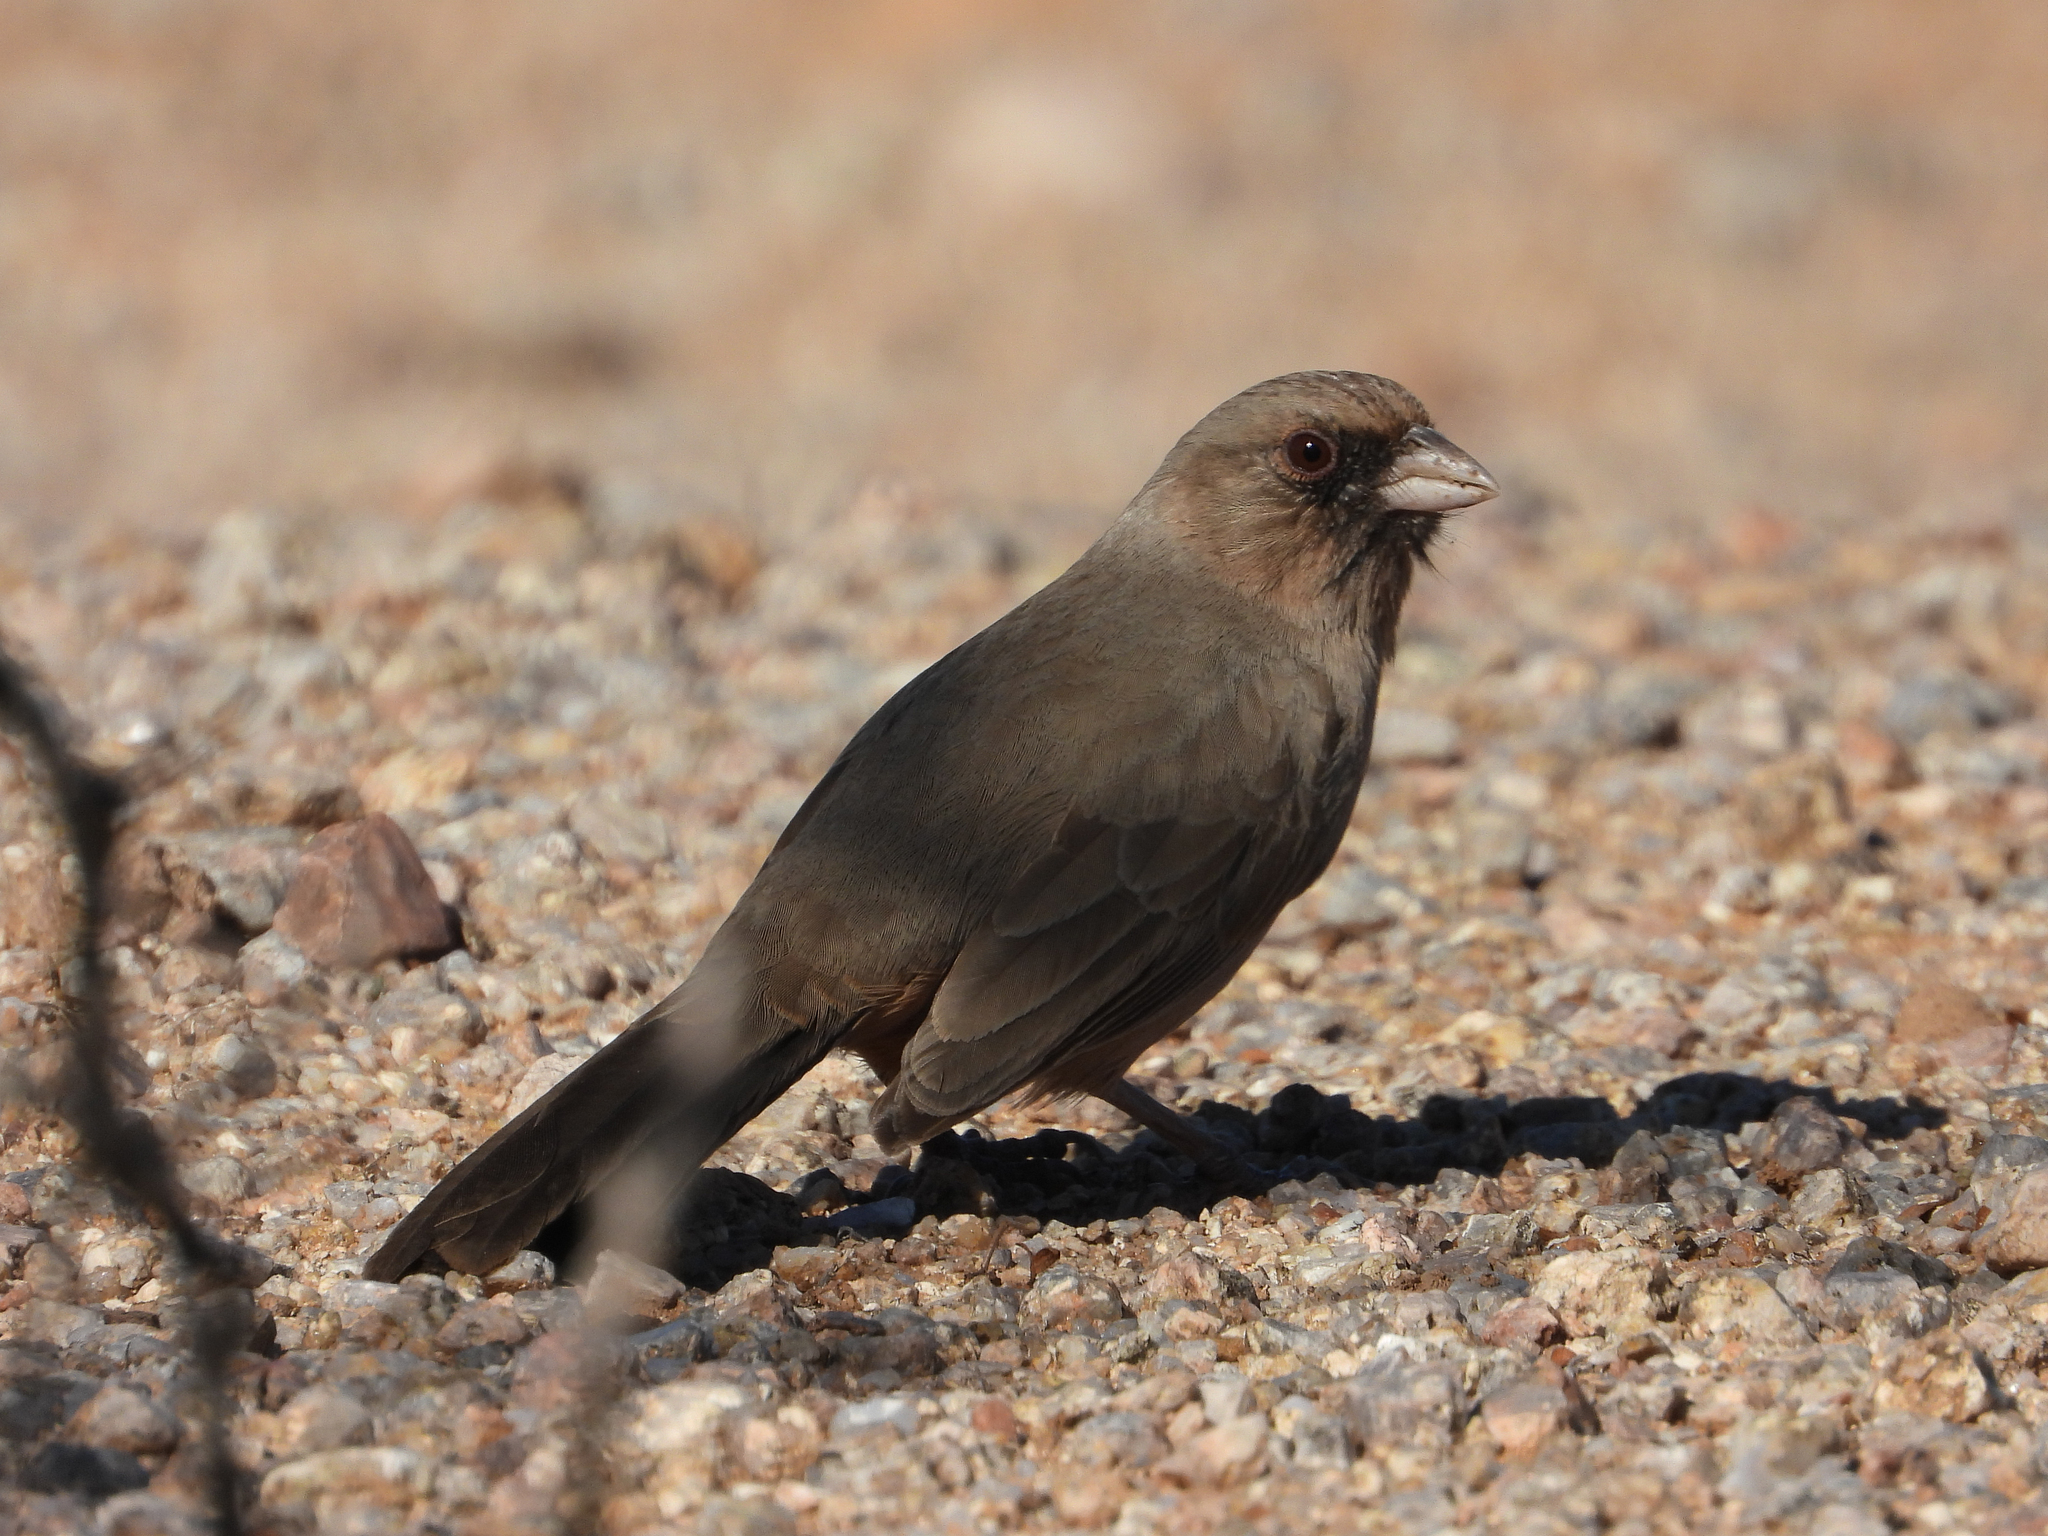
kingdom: Animalia
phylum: Chordata
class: Aves
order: Passeriformes
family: Passerellidae
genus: Melozone
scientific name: Melozone aberti
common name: Abert's towhee
